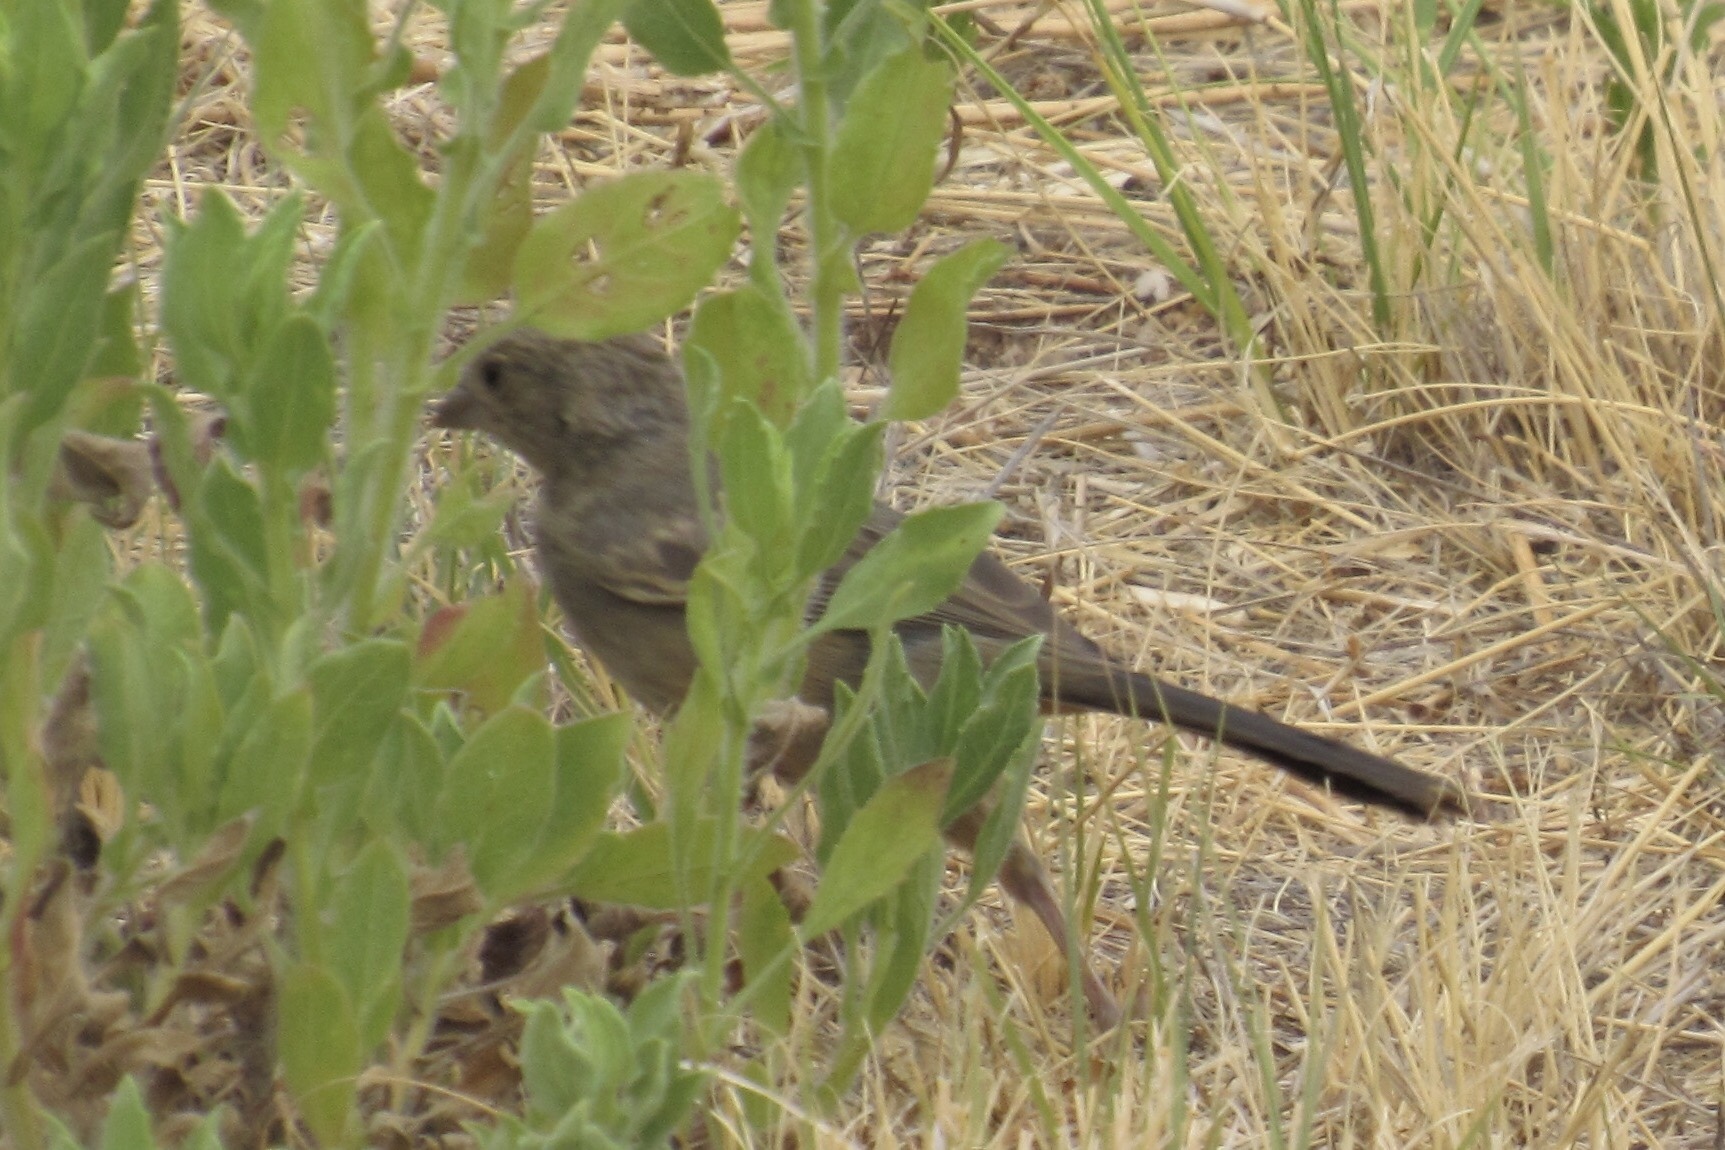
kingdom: Animalia
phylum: Chordata
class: Aves
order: Passeriformes
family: Passerellidae
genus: Melozone
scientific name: Melozone fusca
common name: Canyon towhee
